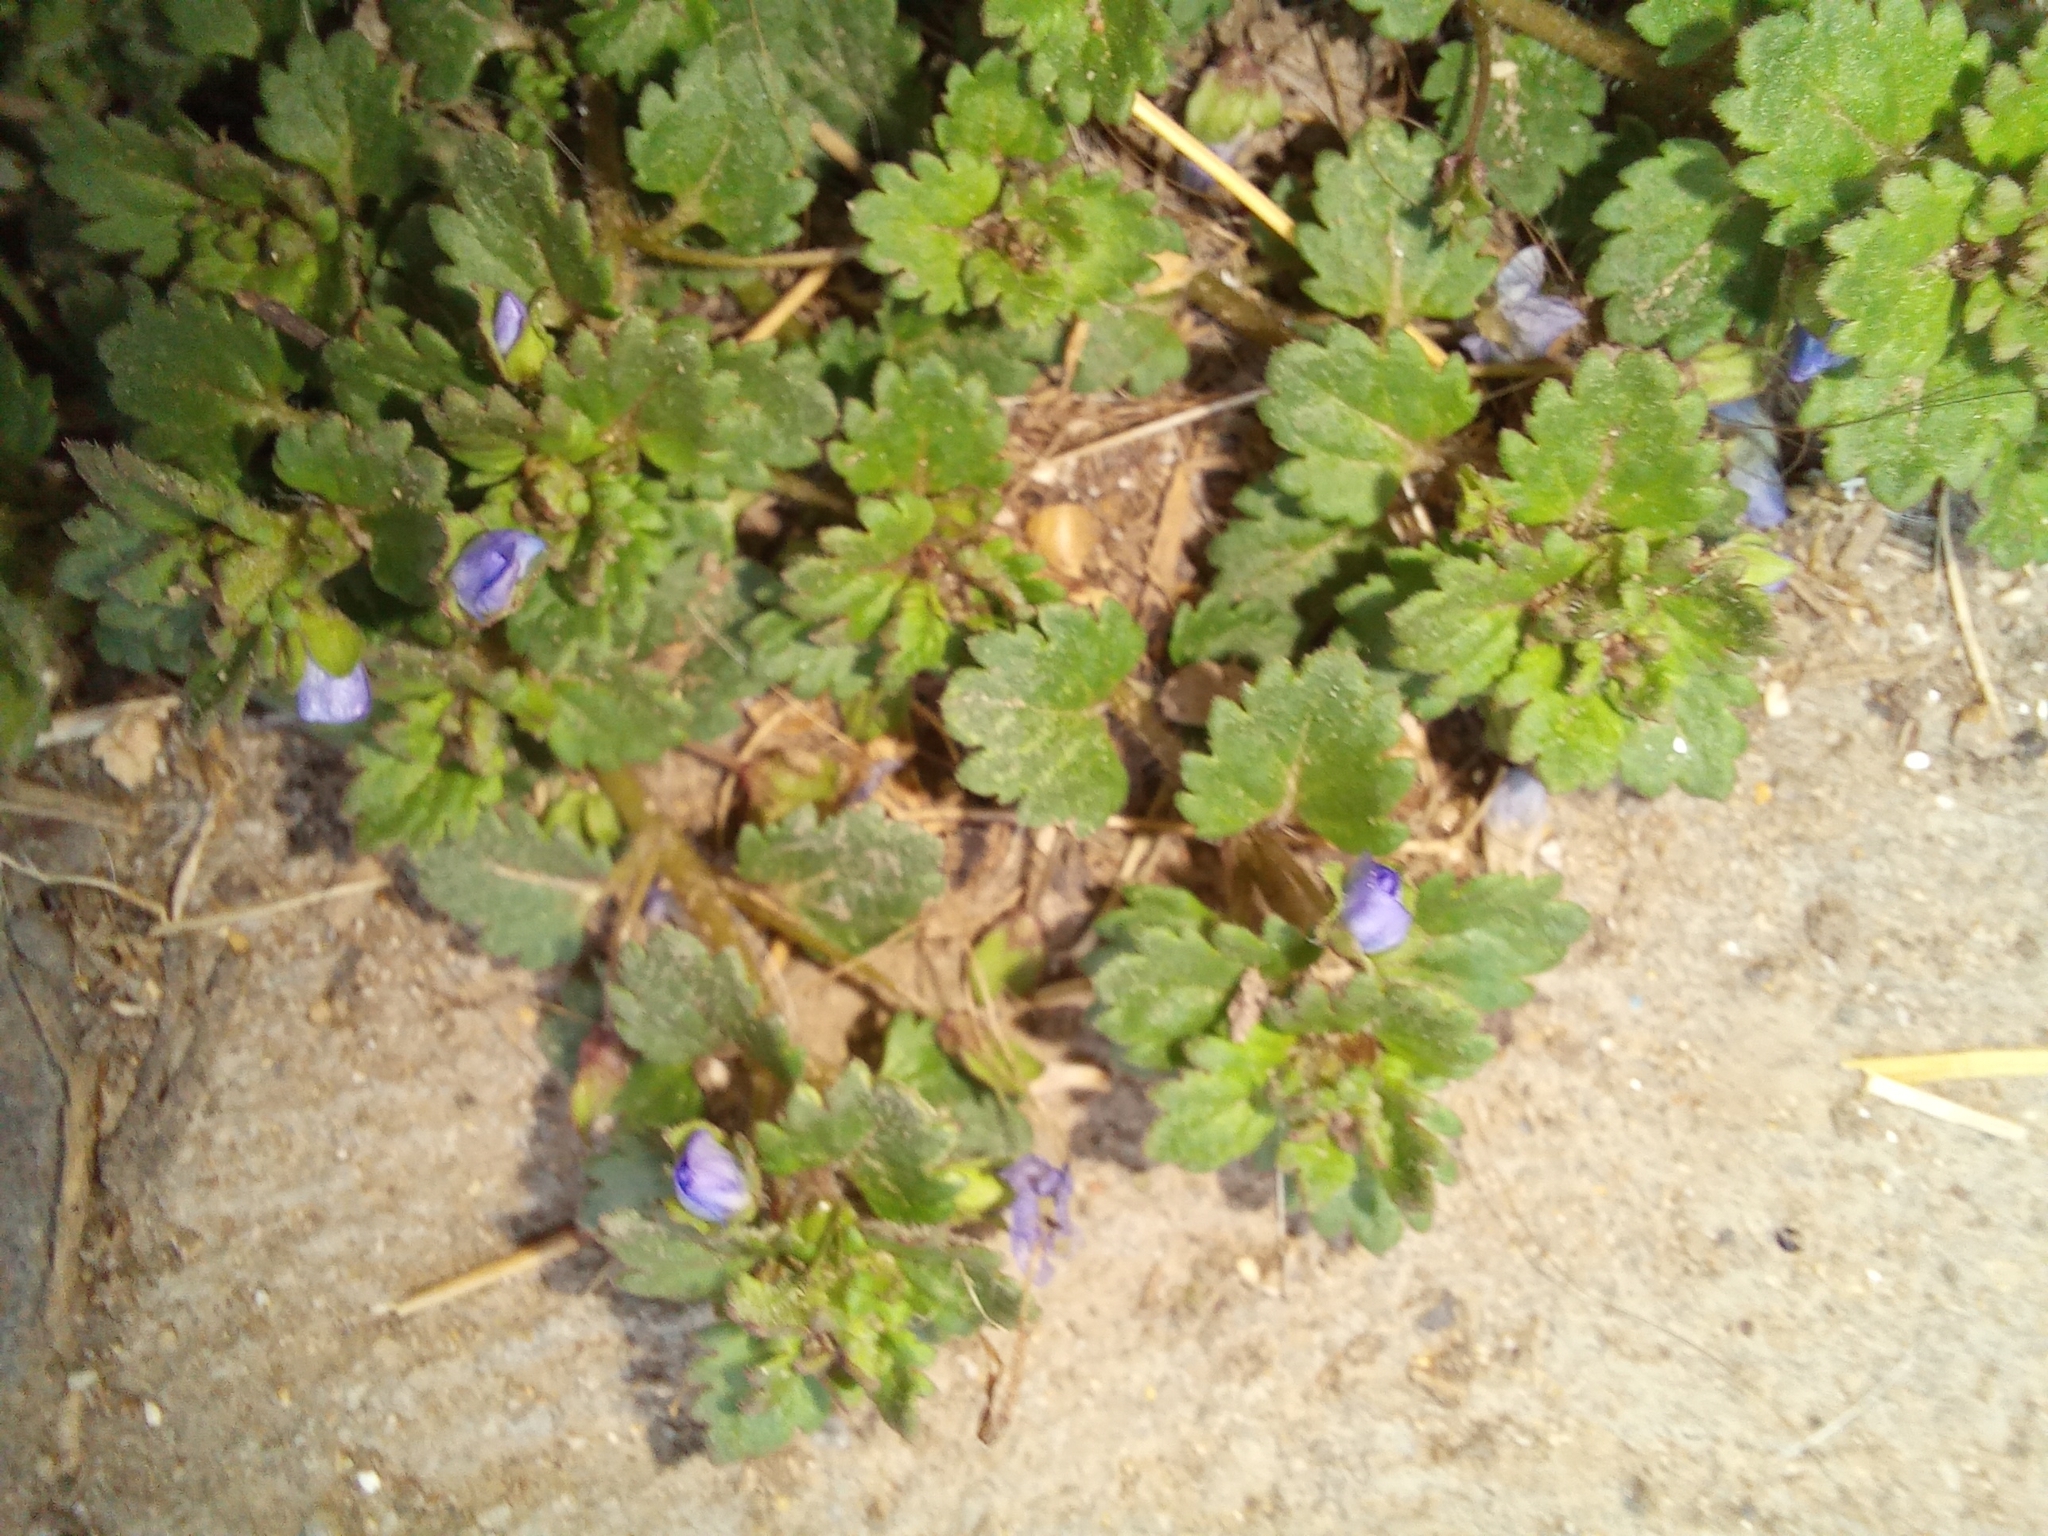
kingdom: Plantae
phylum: Tracheophyta
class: Magnoliopsida
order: Lamiales
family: Plantaginaceae
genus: Veronica
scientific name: Veronica polita
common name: Grey field-speedwell
